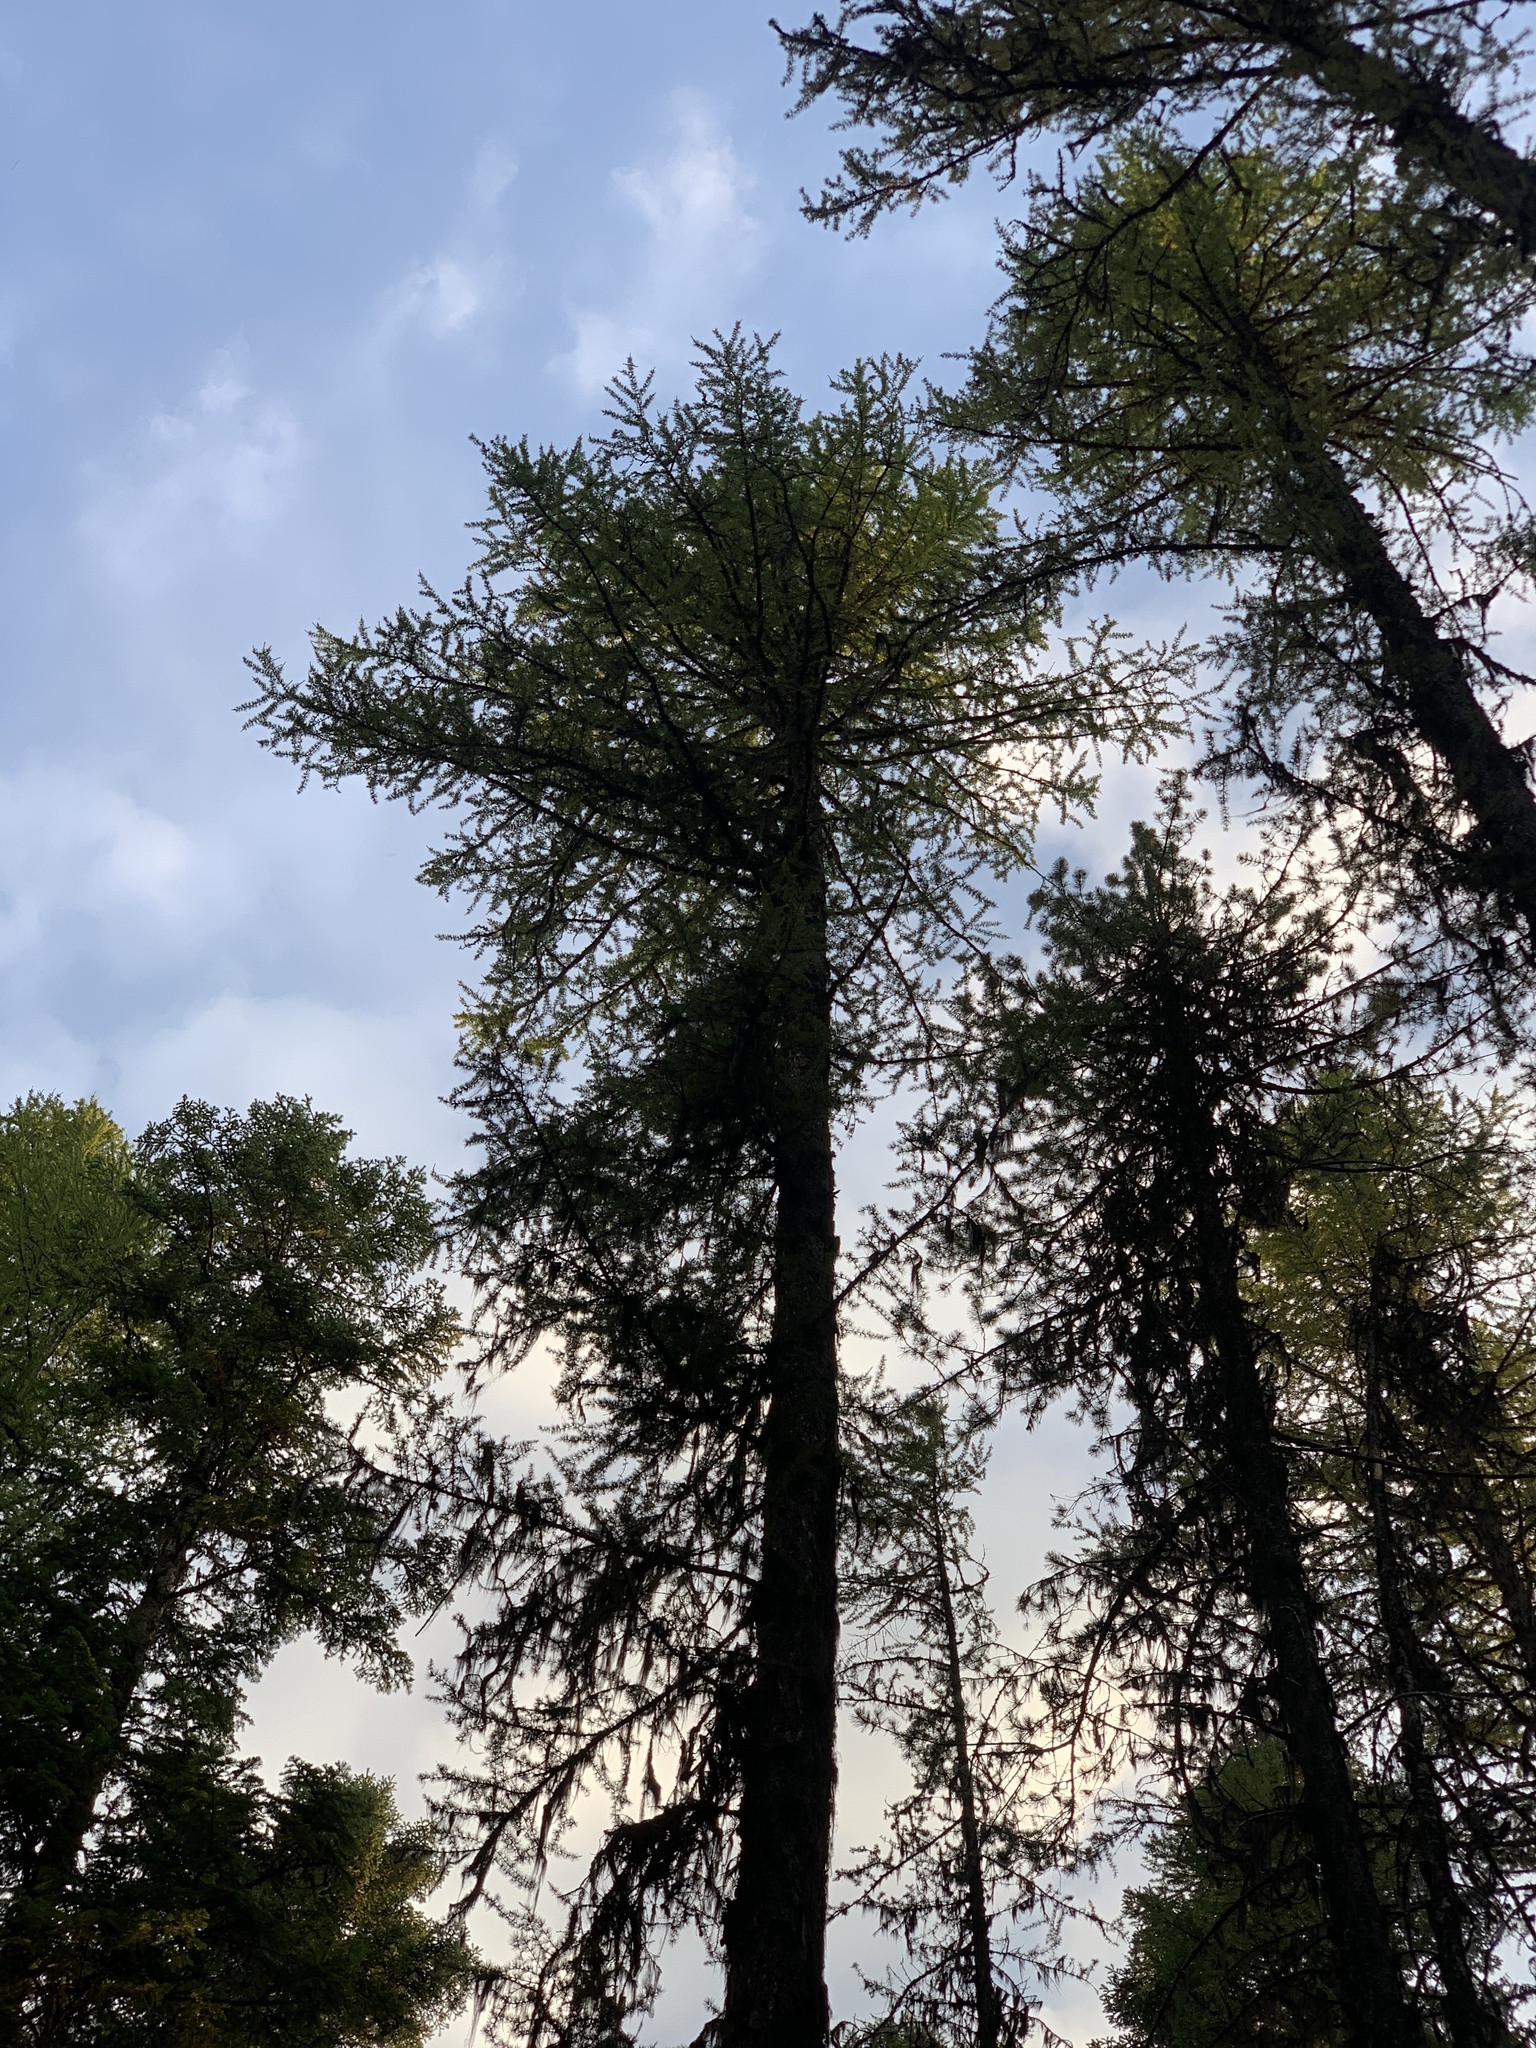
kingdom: Plantae
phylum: Tracheophyta
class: Pinopsida
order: Pinales
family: Pinaceae
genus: Larix
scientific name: Larix occidentalis
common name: Western larch
